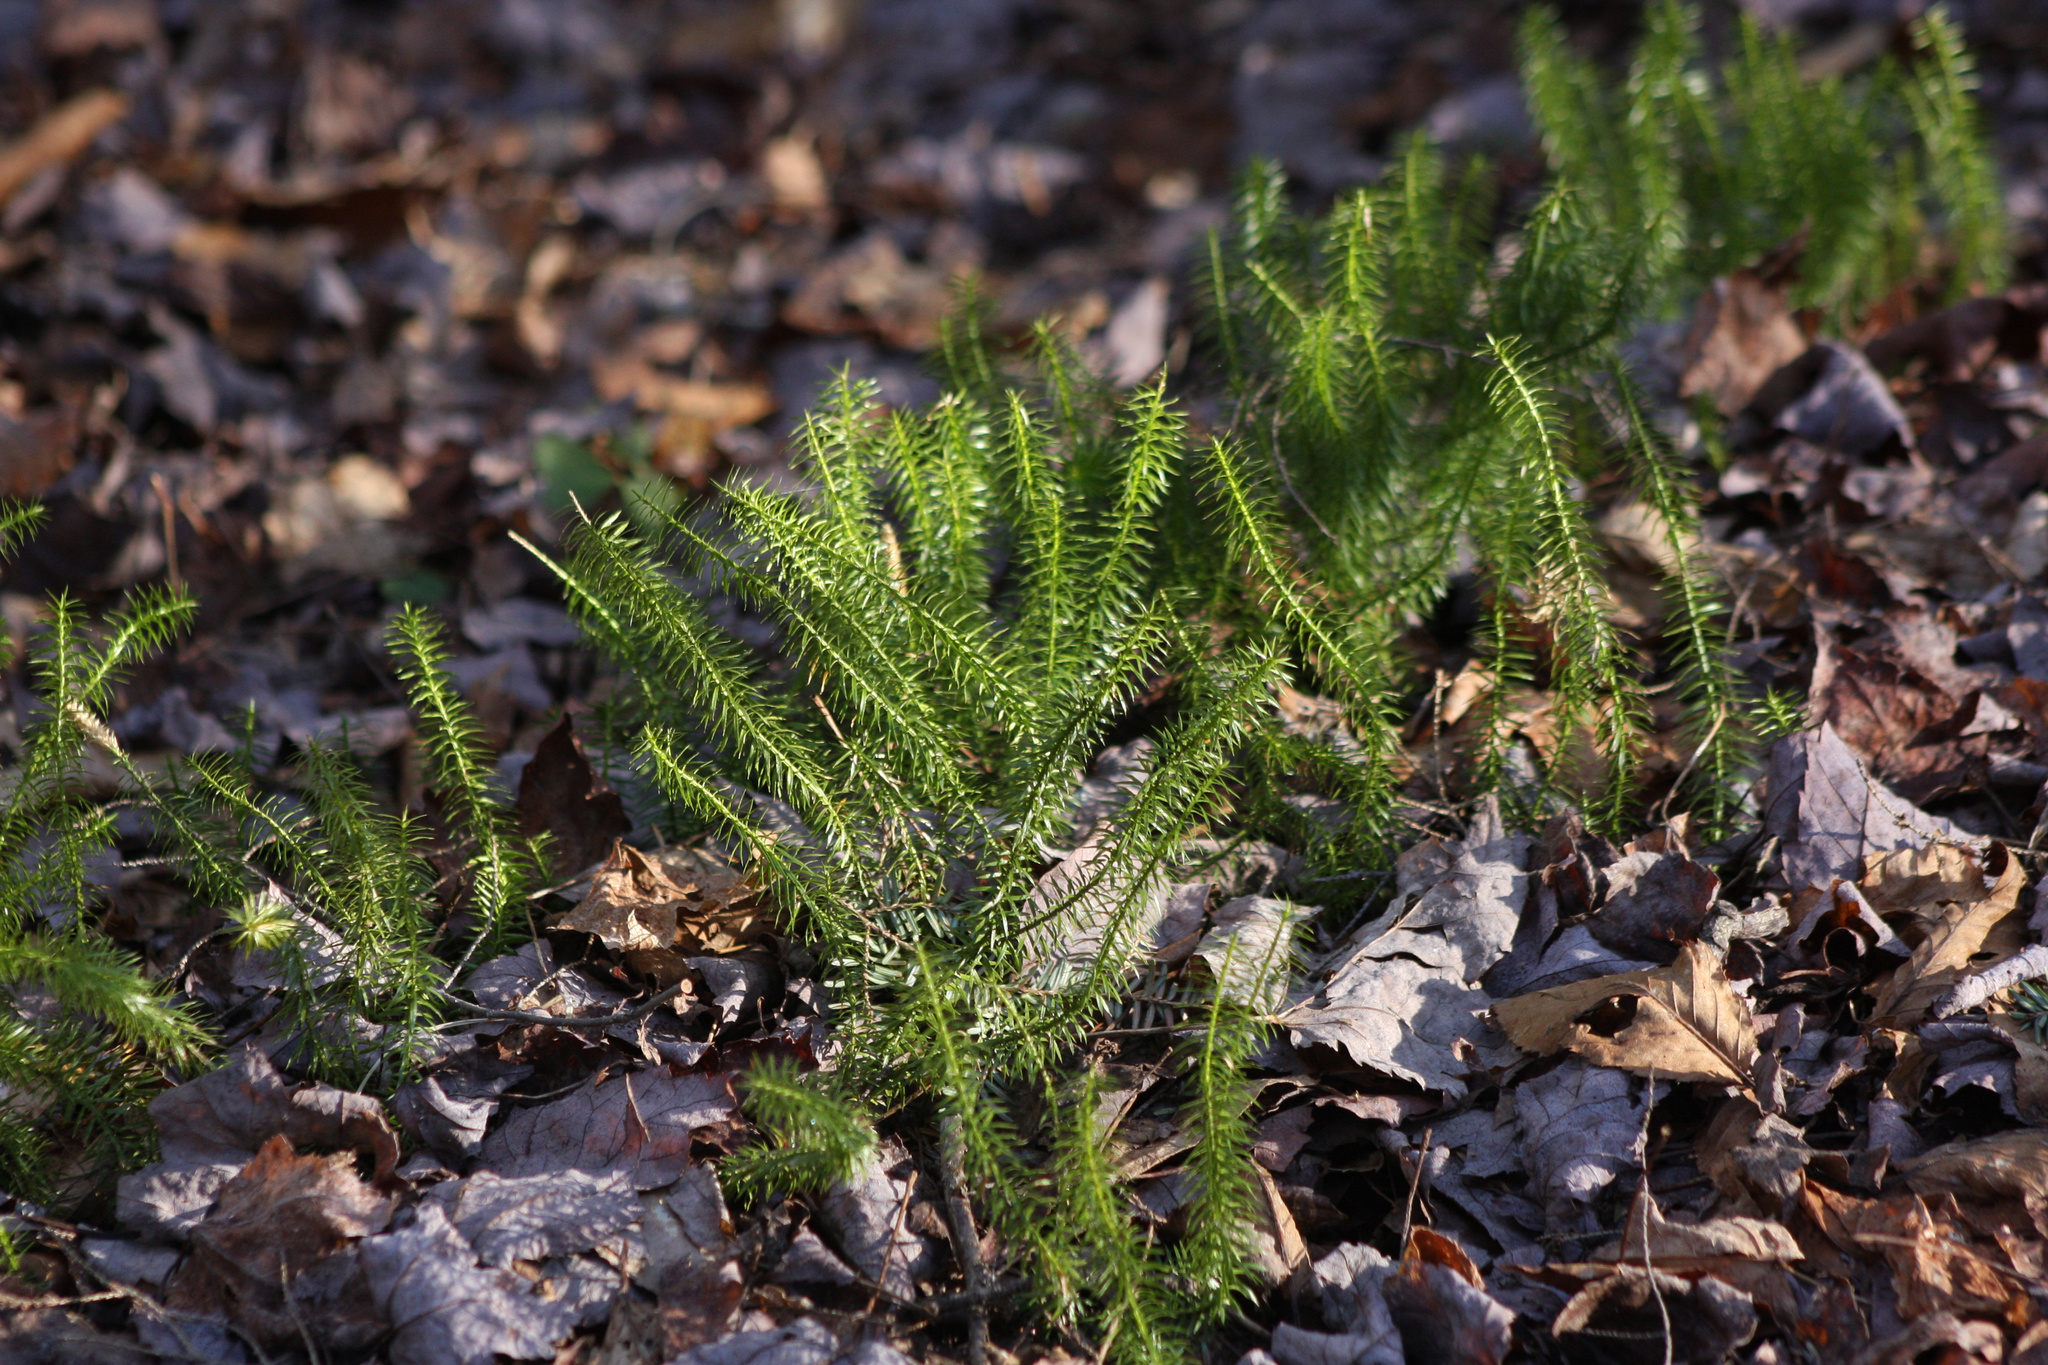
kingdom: Plantae
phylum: Tracheophyta
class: Lycopodiopsida
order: Lycopodiales
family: Lycopodiaceae
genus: Spinulum
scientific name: Spinulum annotinum
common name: Interrupted club-moss
